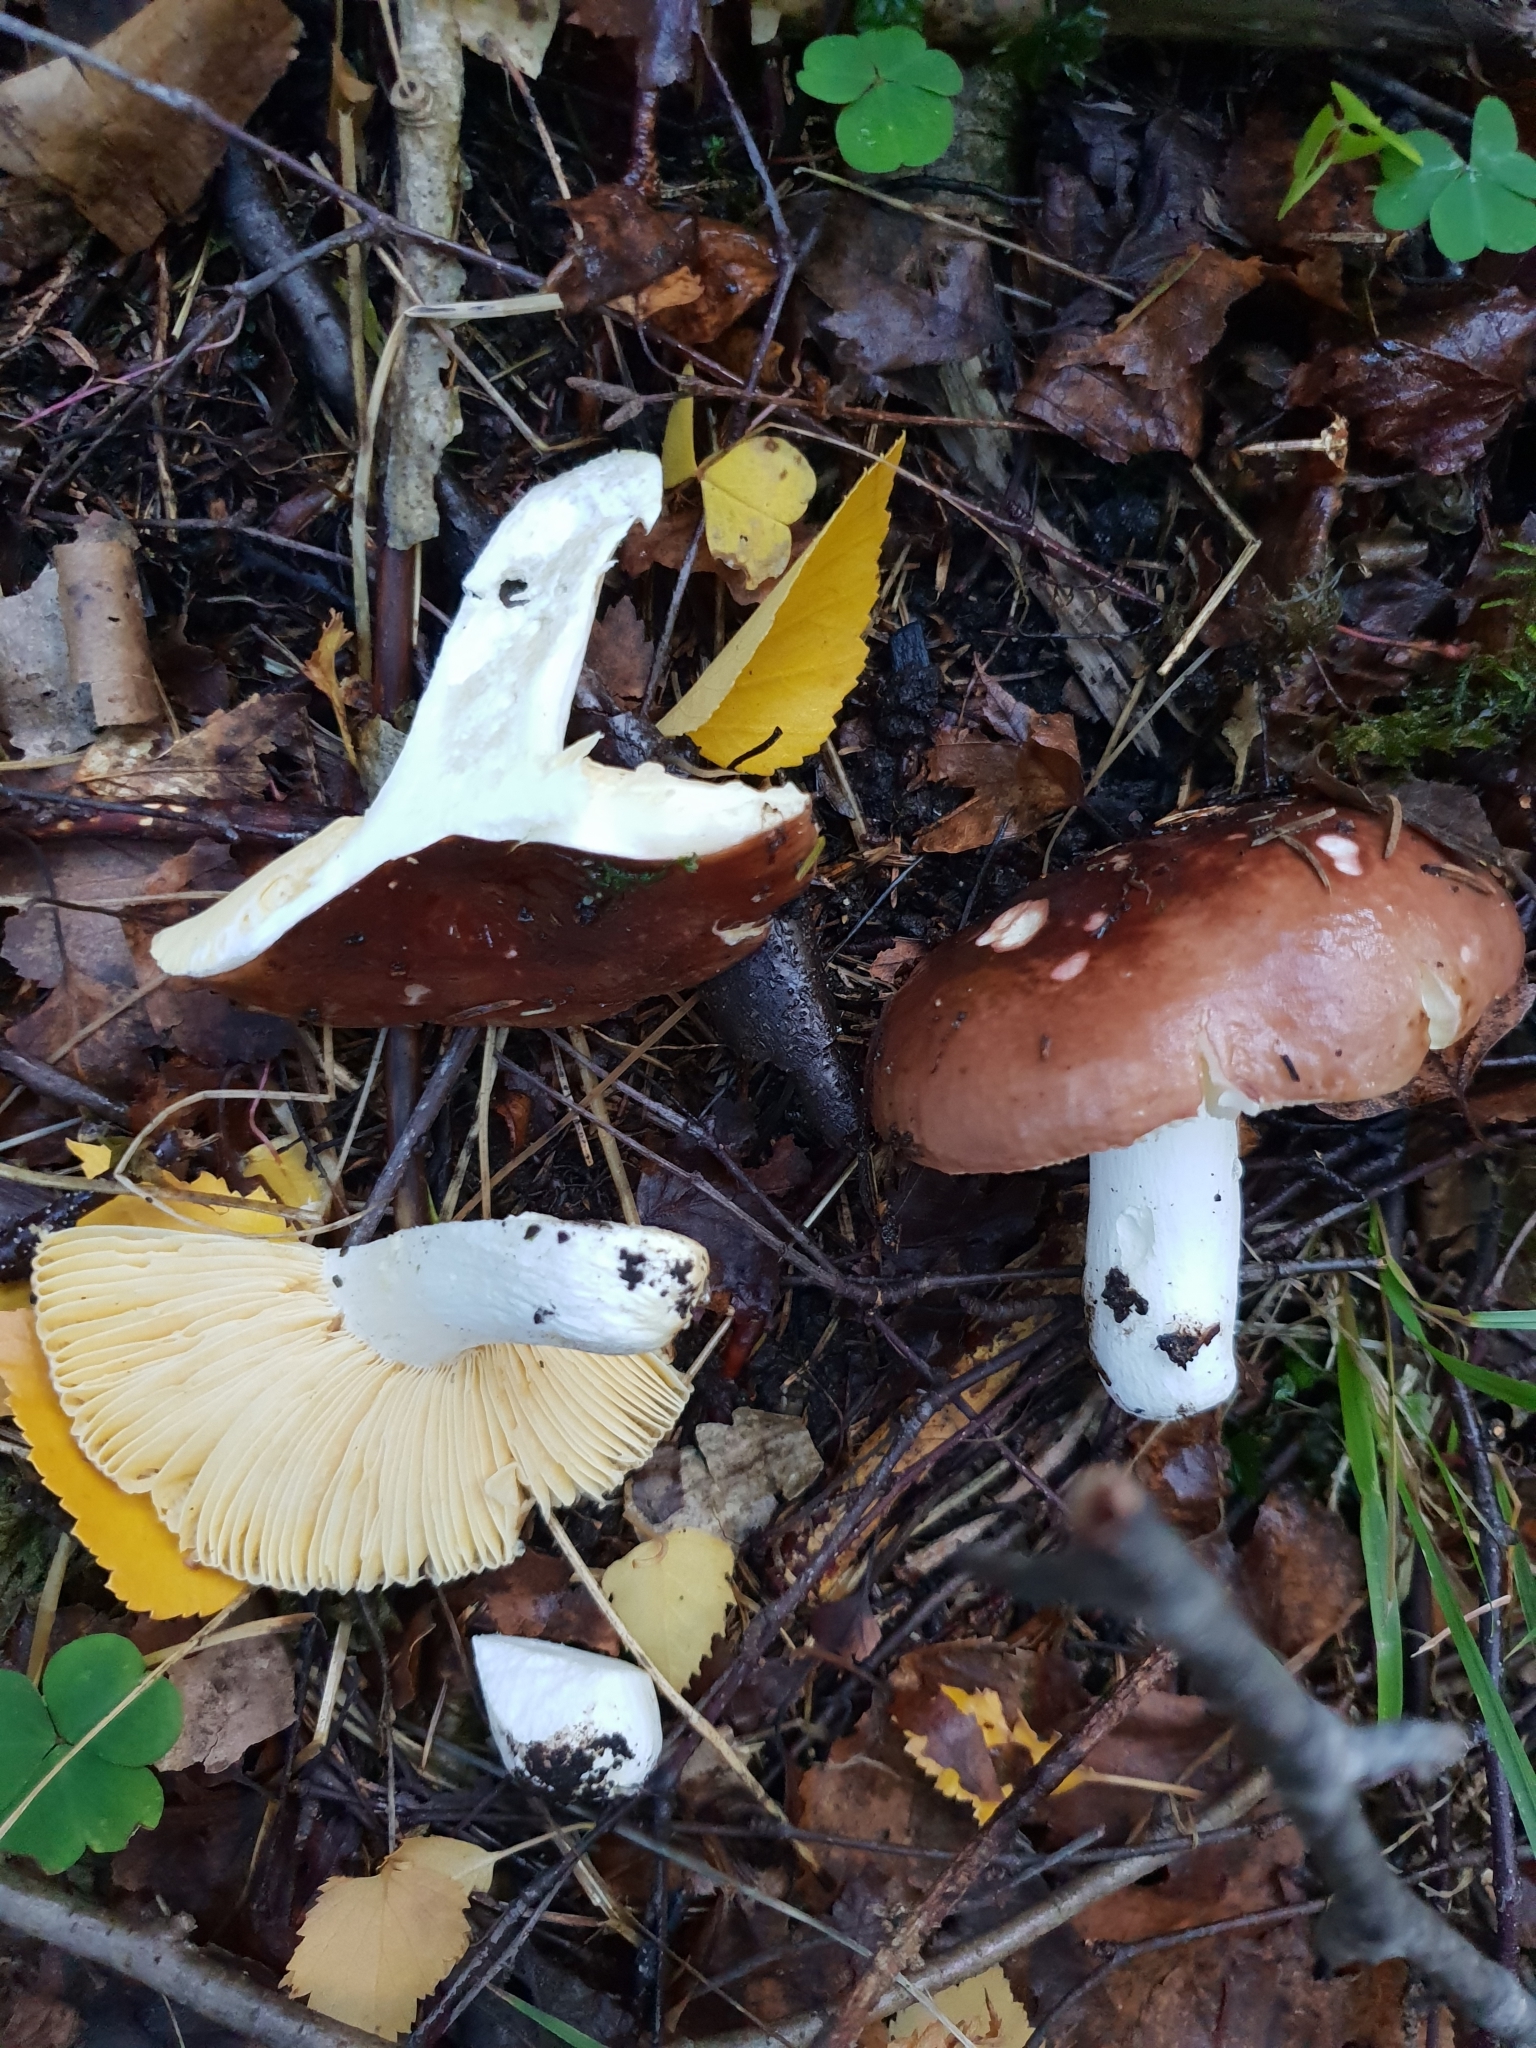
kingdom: Fungi
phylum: Basidiomycota
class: Agaricomycetes
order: Russulales
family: Russulaceae
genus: Russula
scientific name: Russula integra
